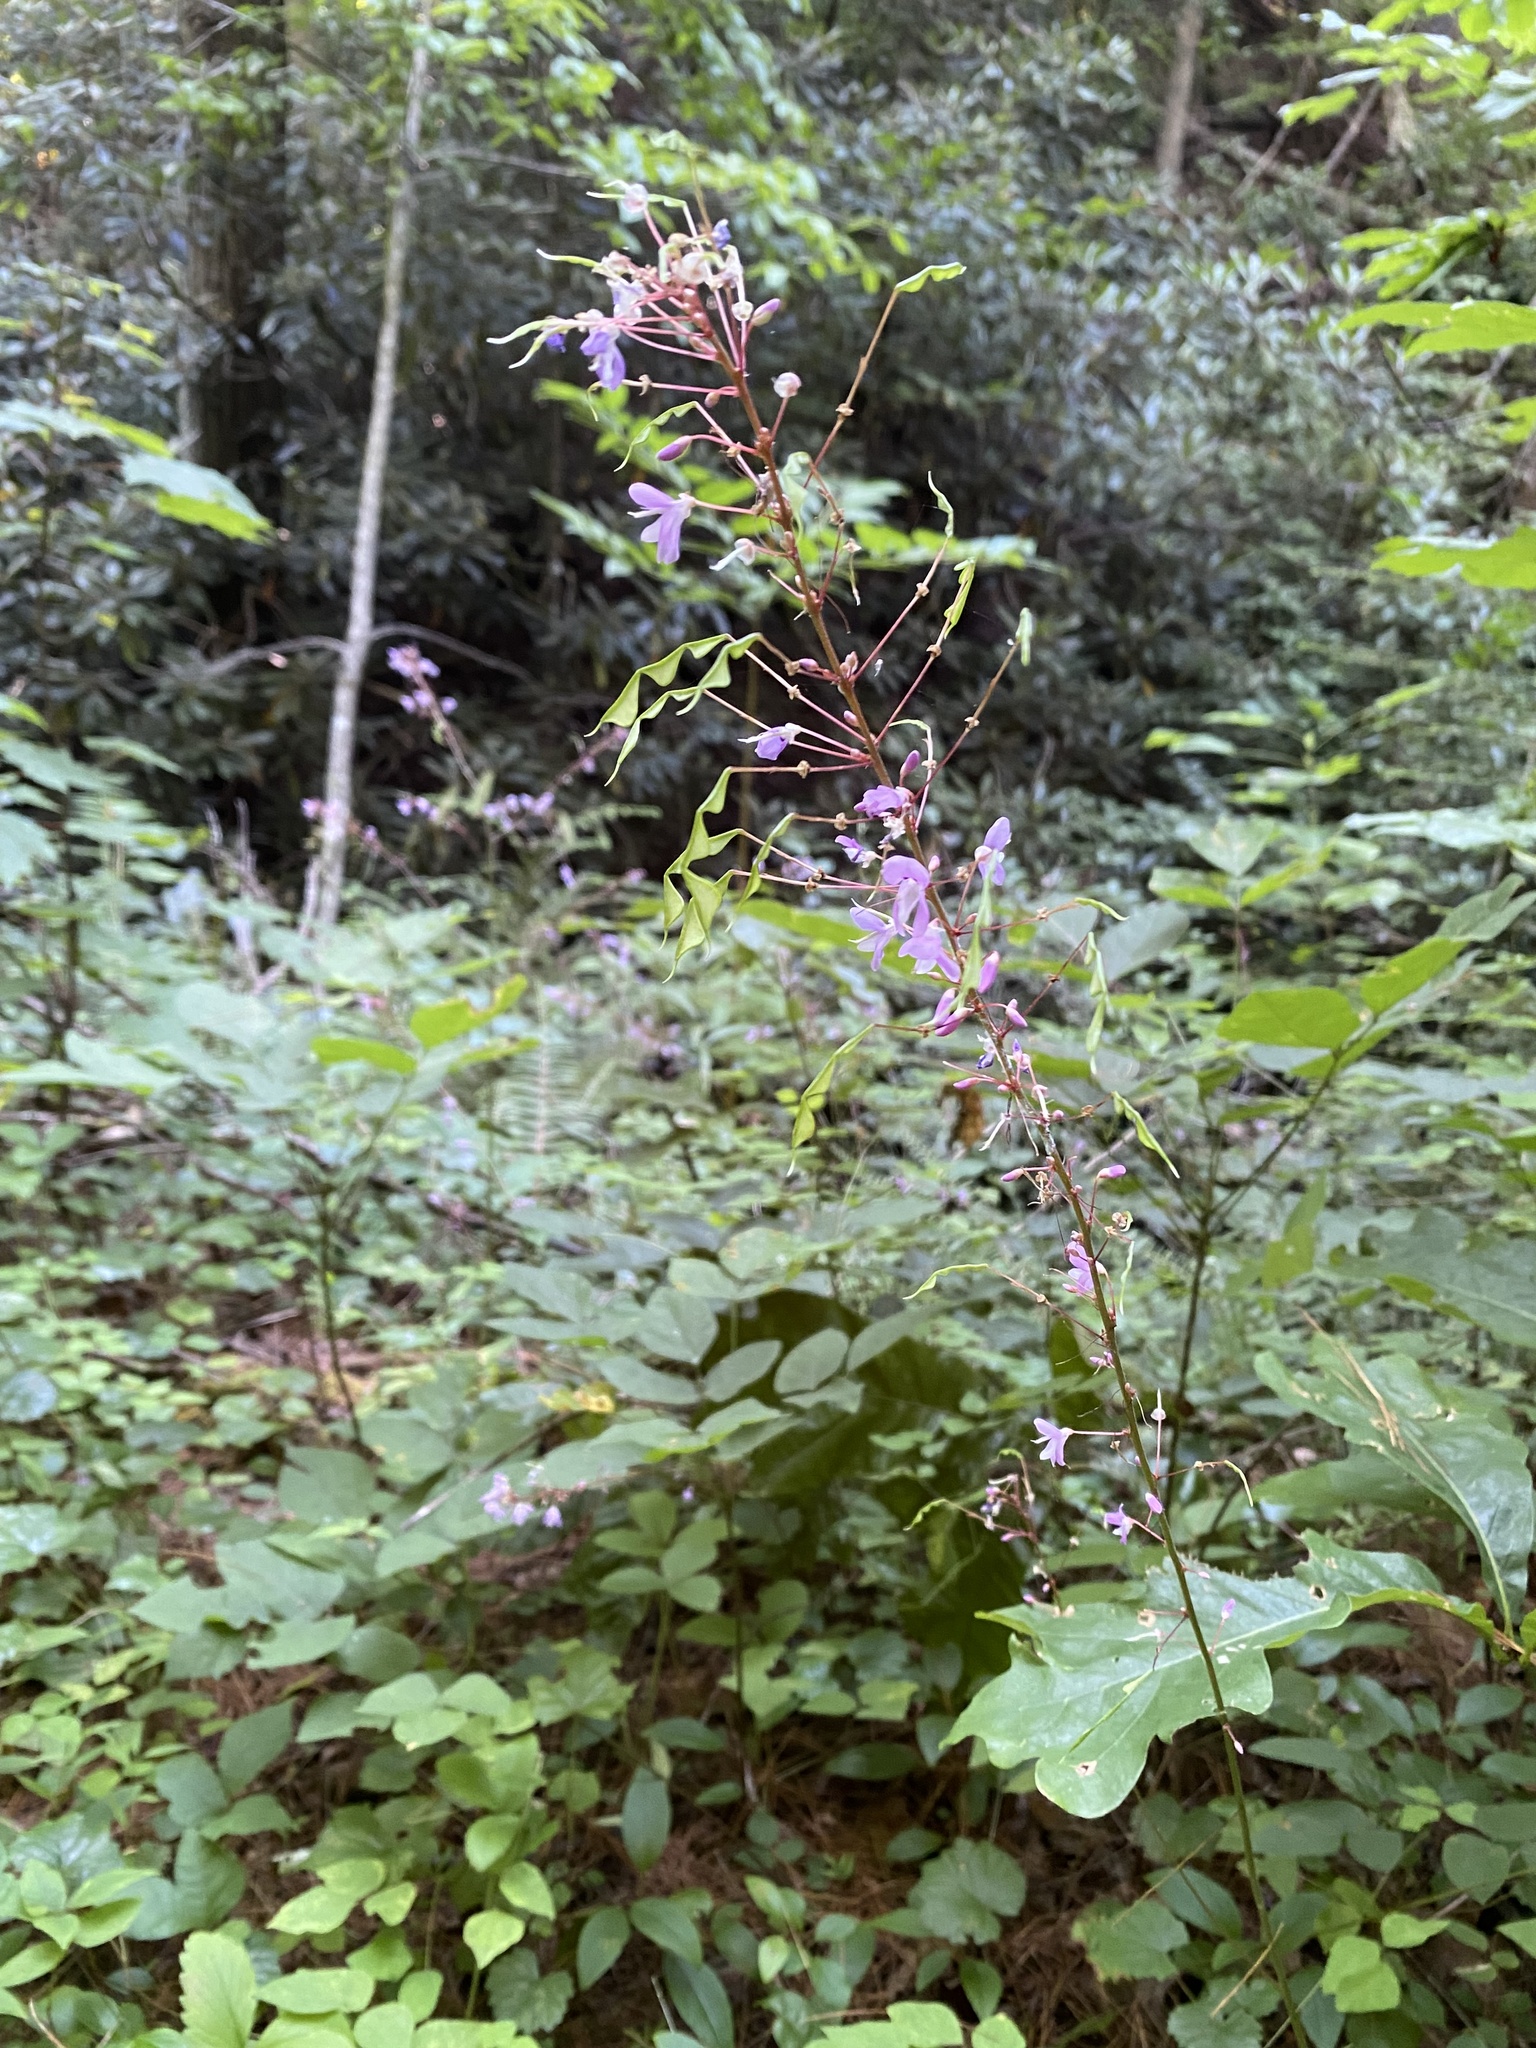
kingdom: Plantae
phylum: Tracheophyta
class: Magnoliopsida
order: Fabales
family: Fabaceae
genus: Hylodesmum
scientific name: Hylodesmum nudiflorum
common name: Bare-stemmed tick-trefoil
